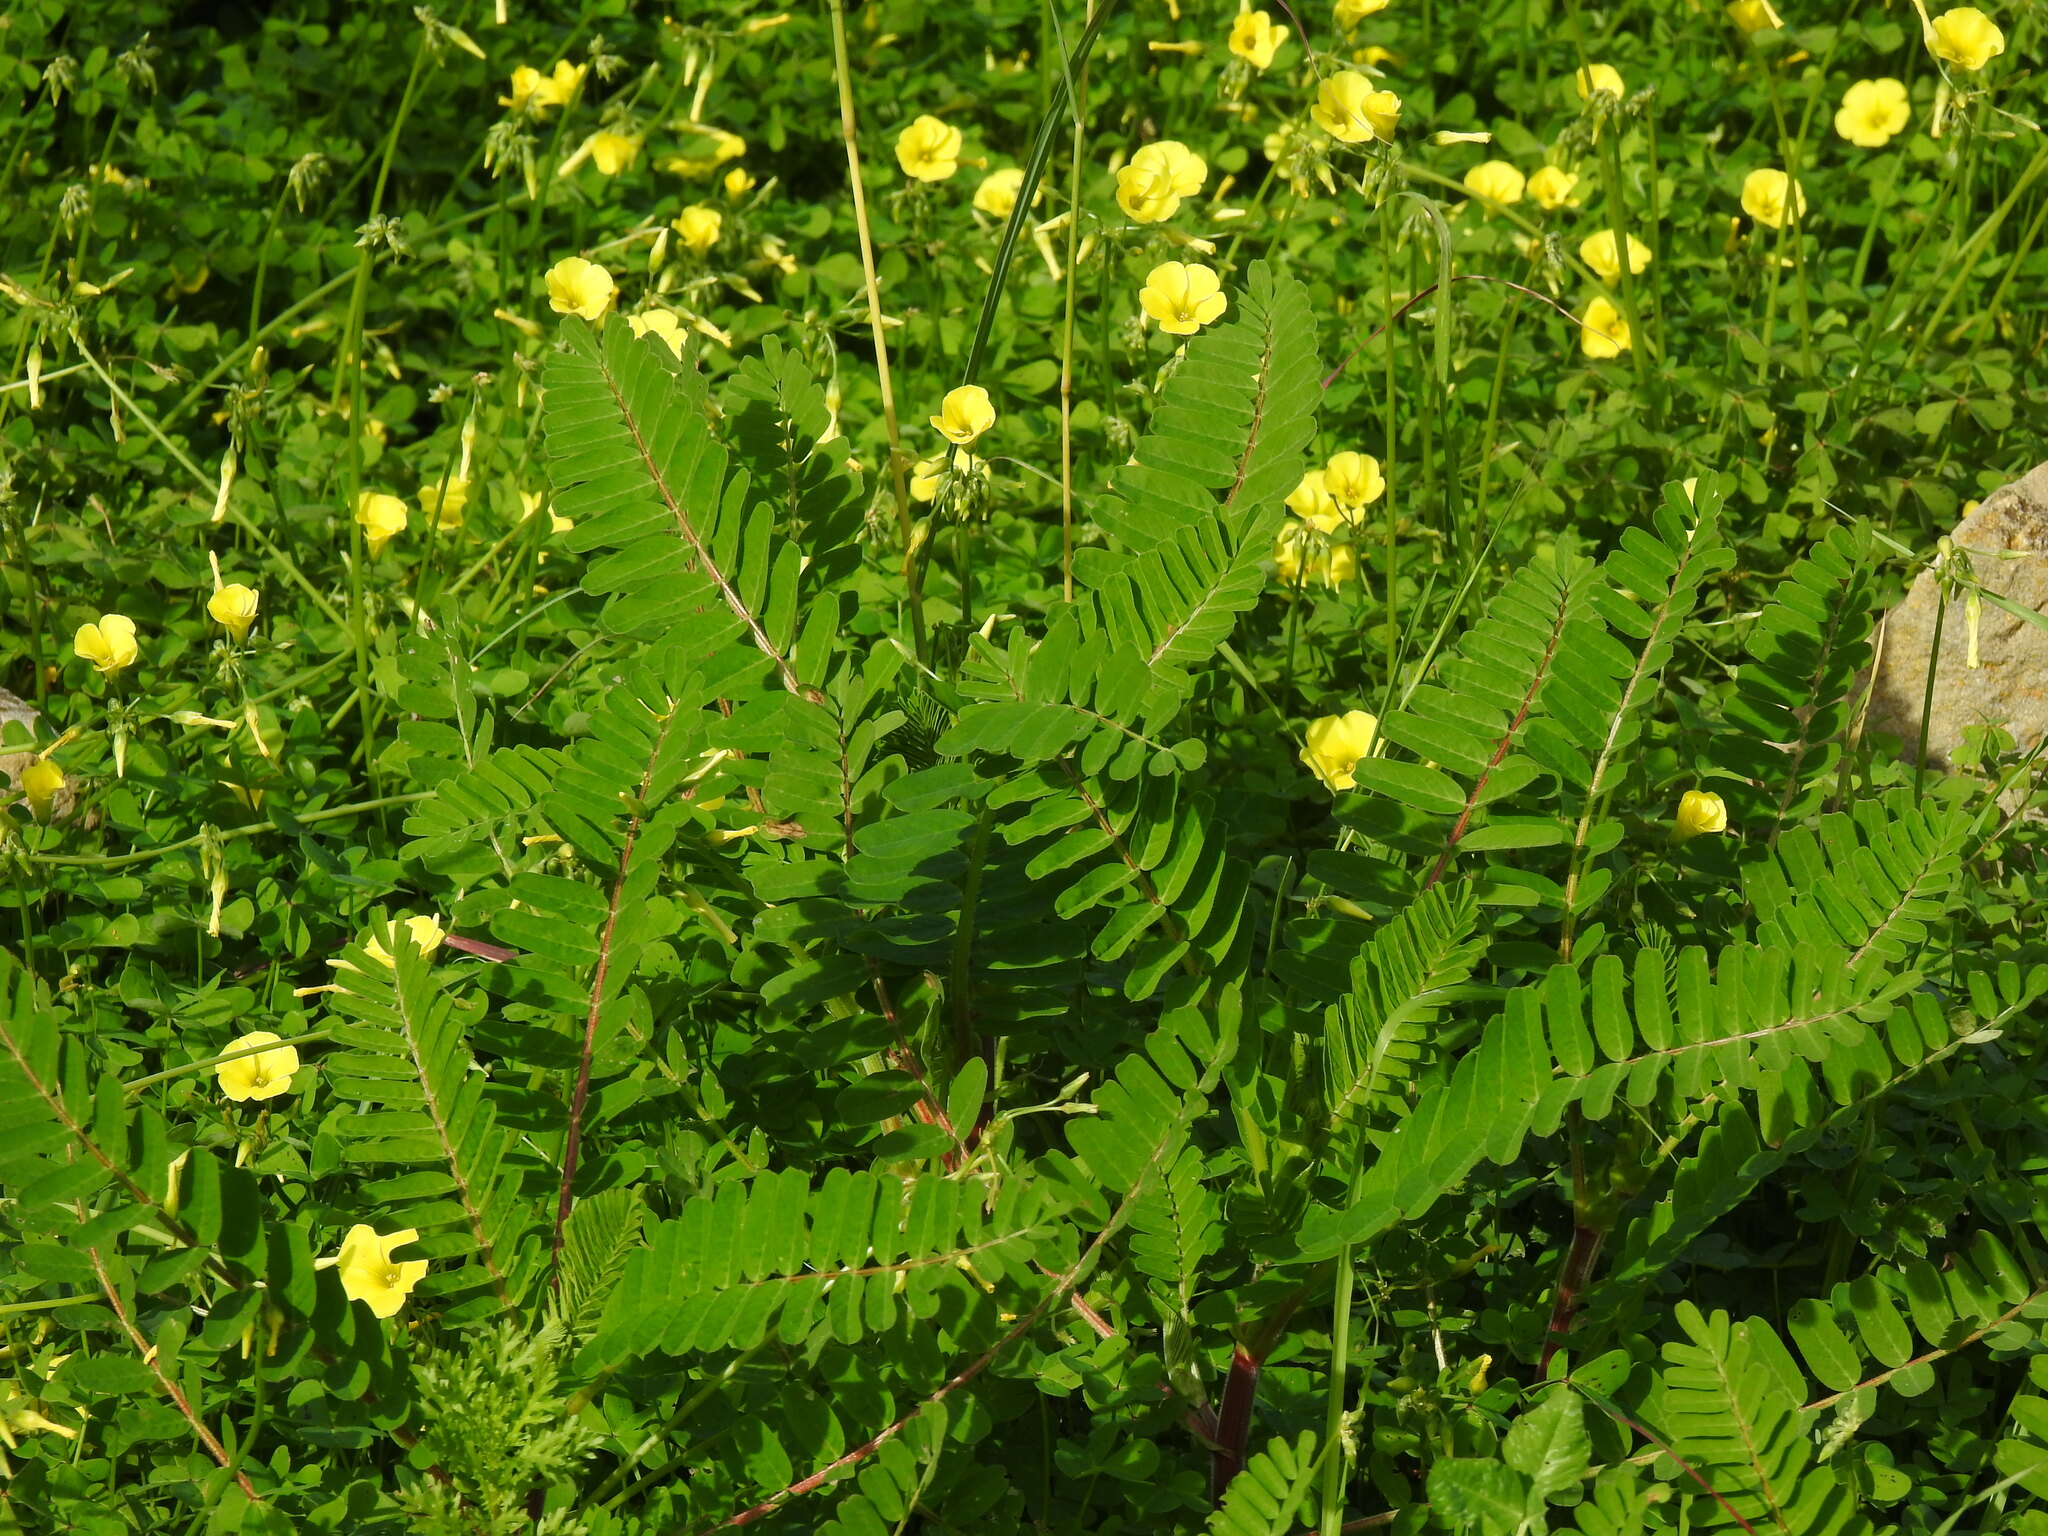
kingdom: Plantae
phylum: Tracheophyta
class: Magnoliopsida
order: Fabales
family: Fabaceae
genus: Astragalus
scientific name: Astragalus boeticus
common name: Milk-vetch
